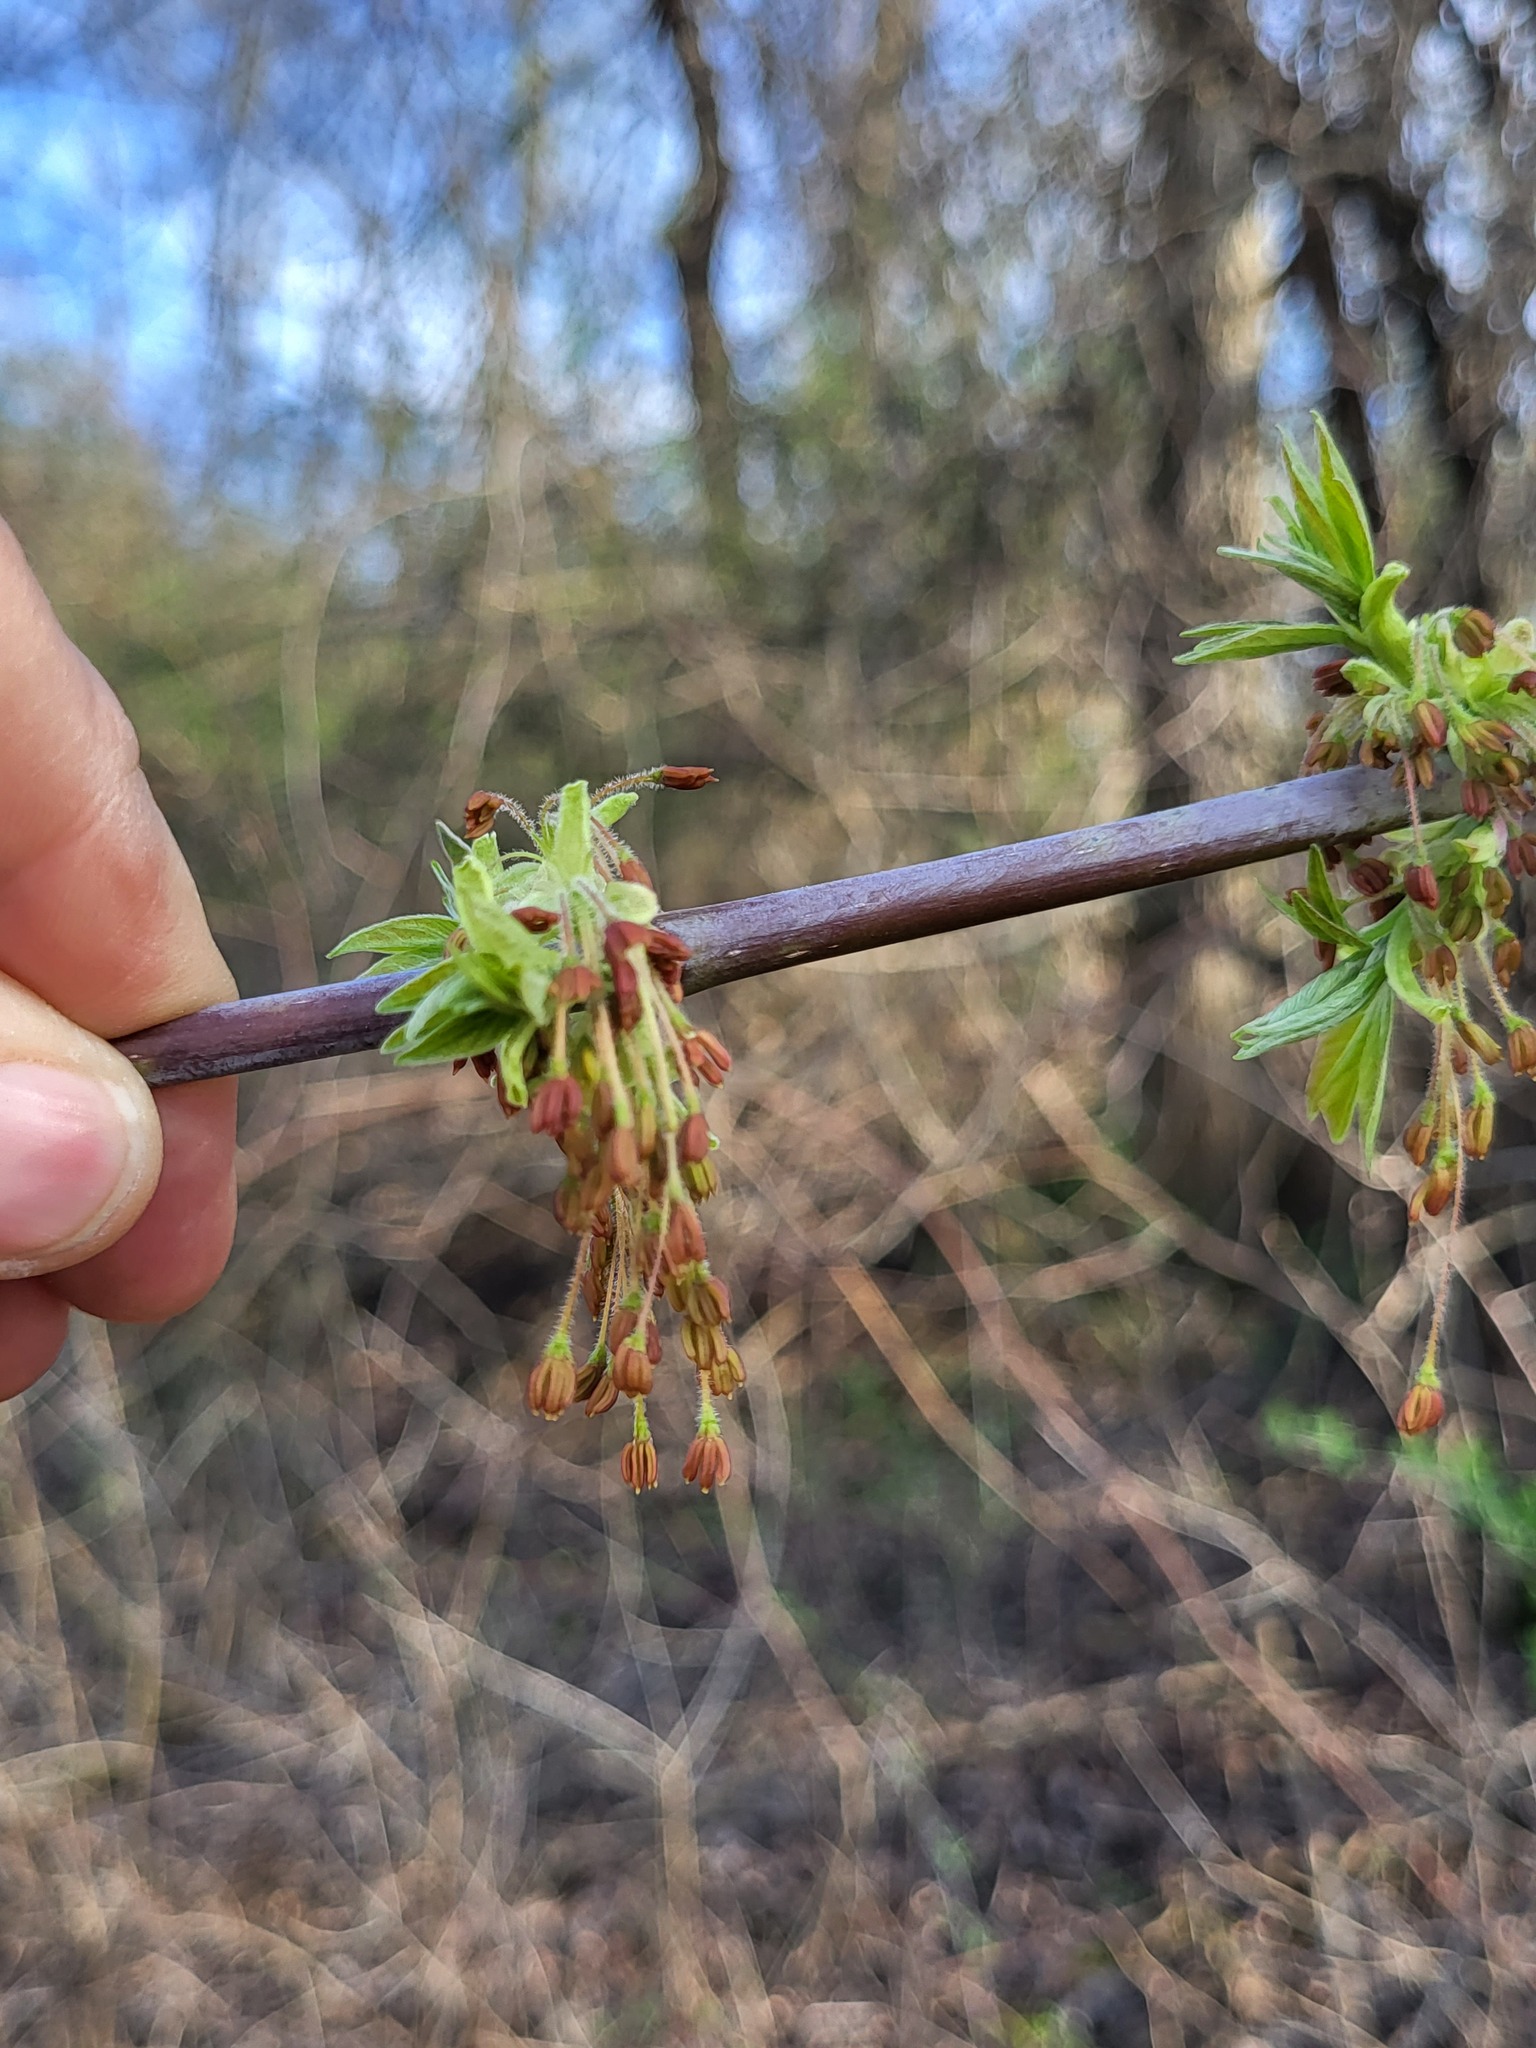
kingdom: Plantae
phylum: Tracheophyta
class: Magnoliopsida
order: Sapindales
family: Sapindaceae
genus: Acer
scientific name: Acer negundo
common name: Ashleaf maple
